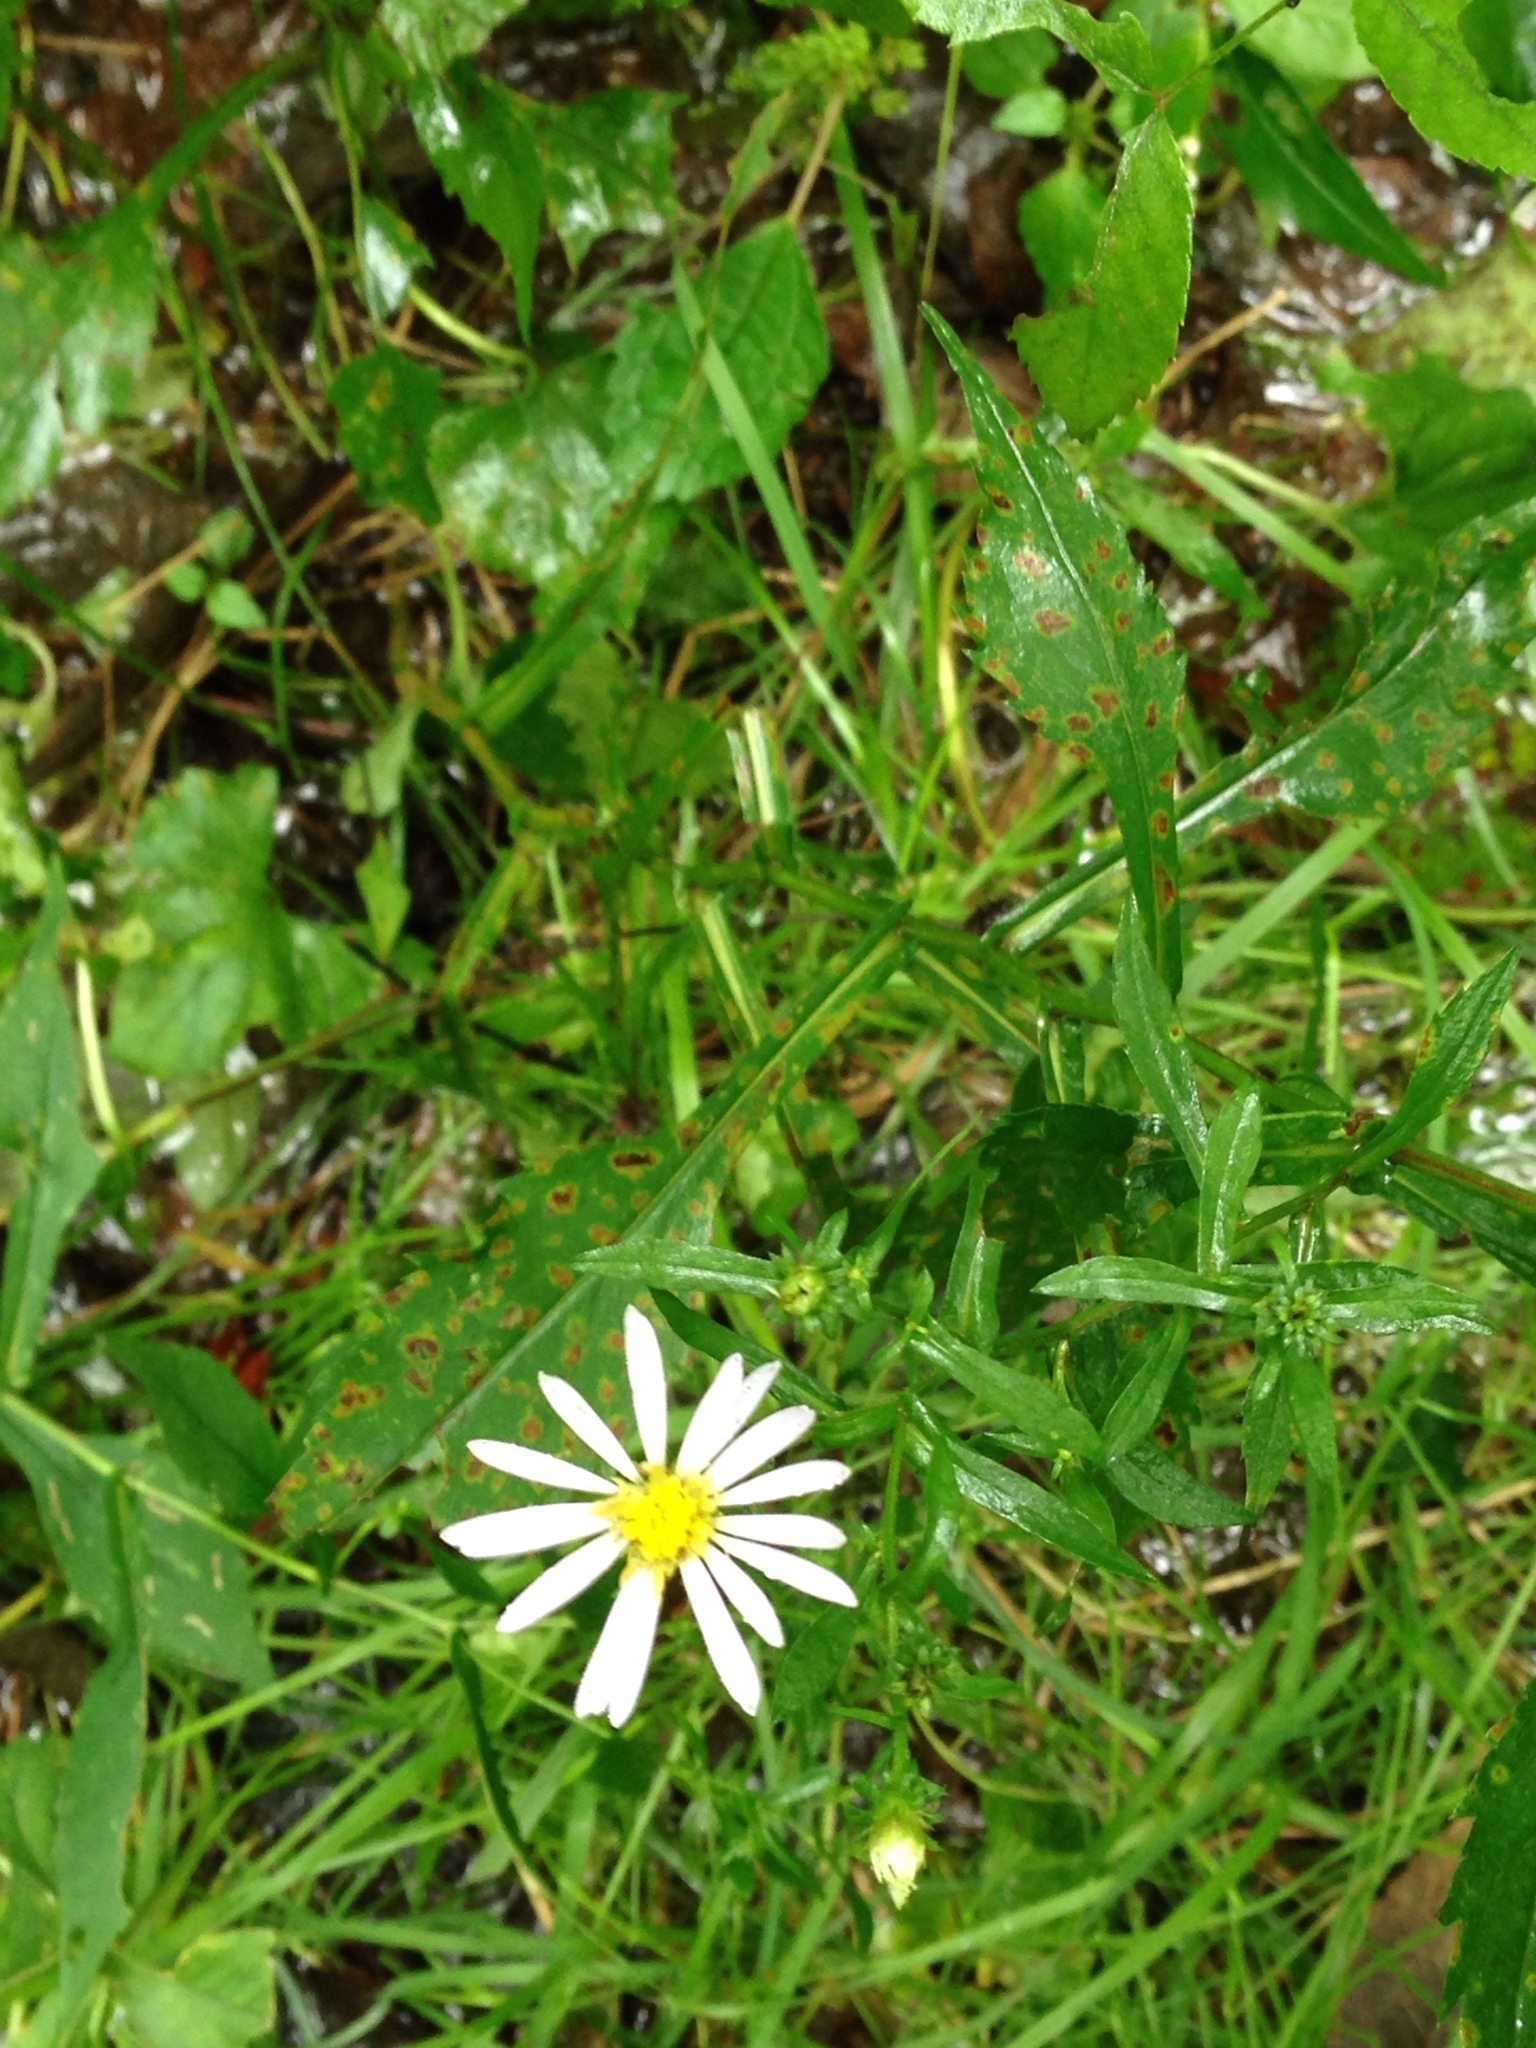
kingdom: Plantae
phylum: Tracheophyta
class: Magnoliopsida
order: Asterales
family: Asteraceae
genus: Symphyotrichum
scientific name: Symphyotrichum prenanthoides
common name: Crooked-stem aster
